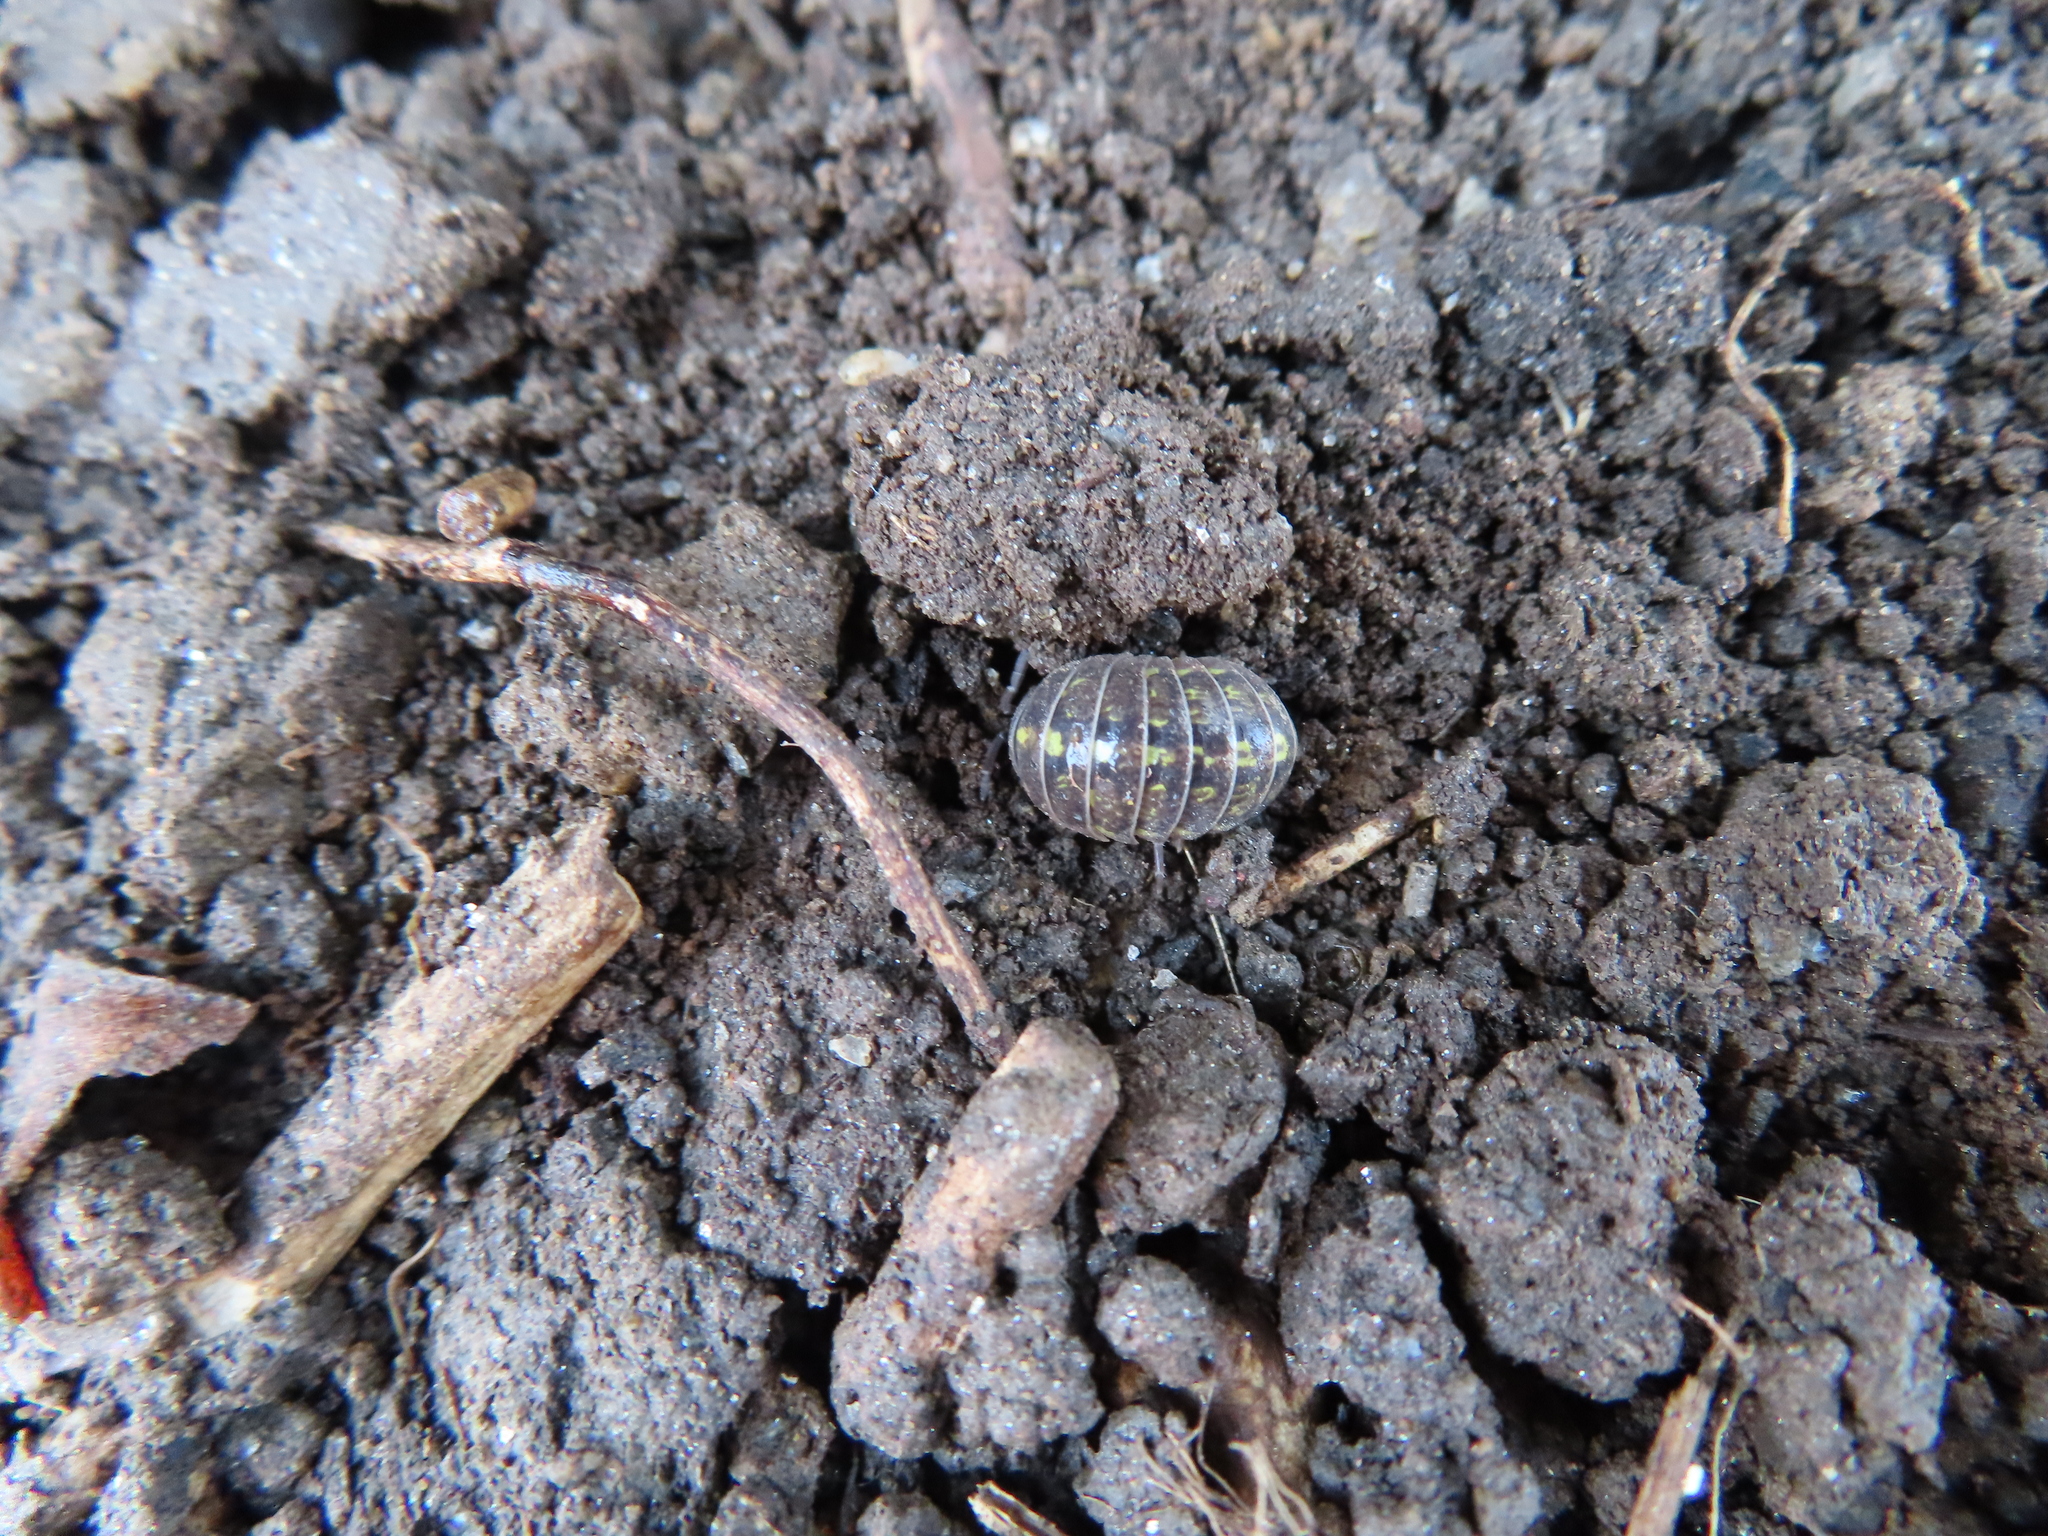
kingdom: Animalia
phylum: Arthropoda
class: Malacostraca
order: Isopoda
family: Armadillidiidae
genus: Armadillidium
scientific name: Armadillidium vulgare
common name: Common pill woodlouse
